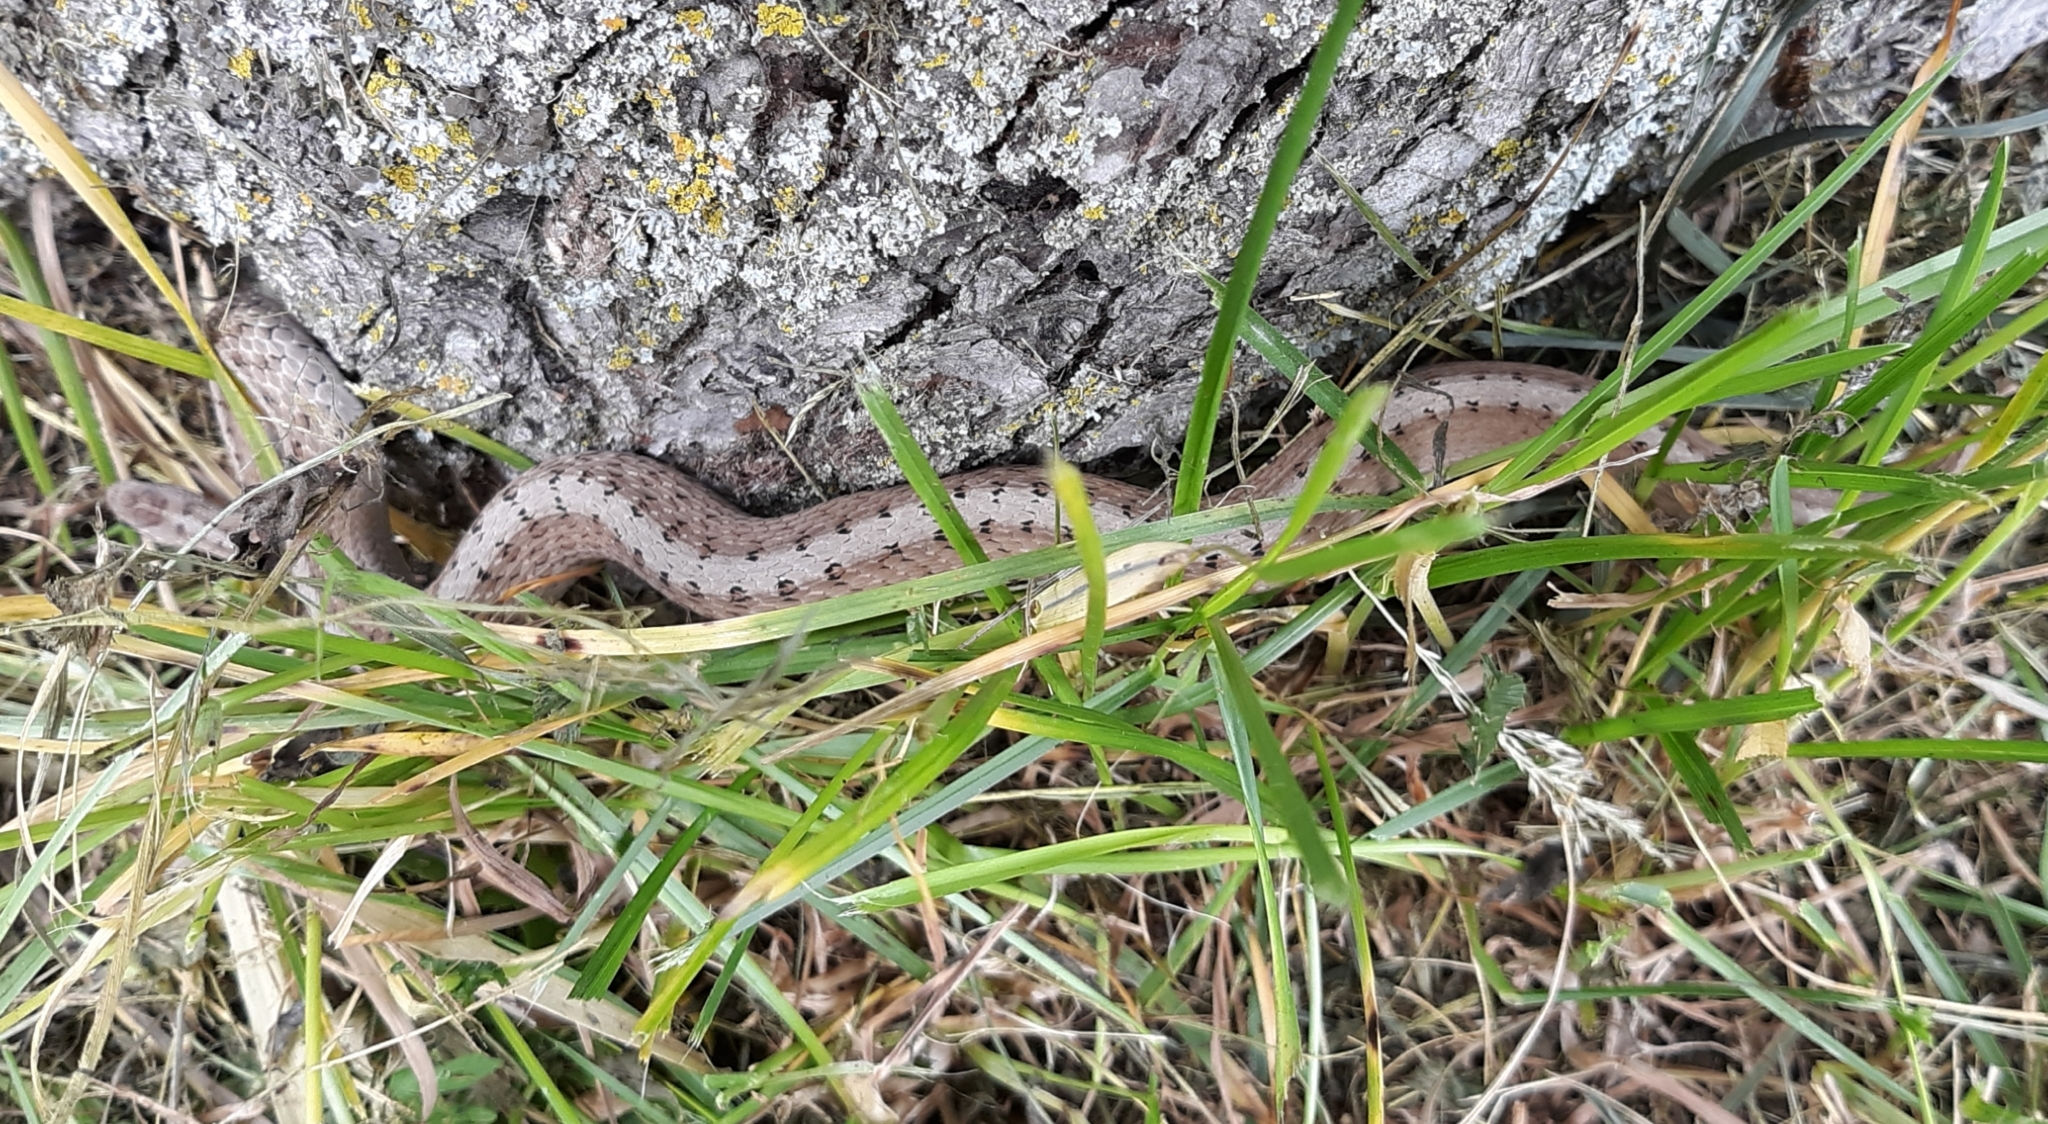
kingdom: Animalia
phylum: Chordata
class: Squamata
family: Colubridae
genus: Storeria
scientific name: Storeria dekayi
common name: (dekay’s) brown snake
